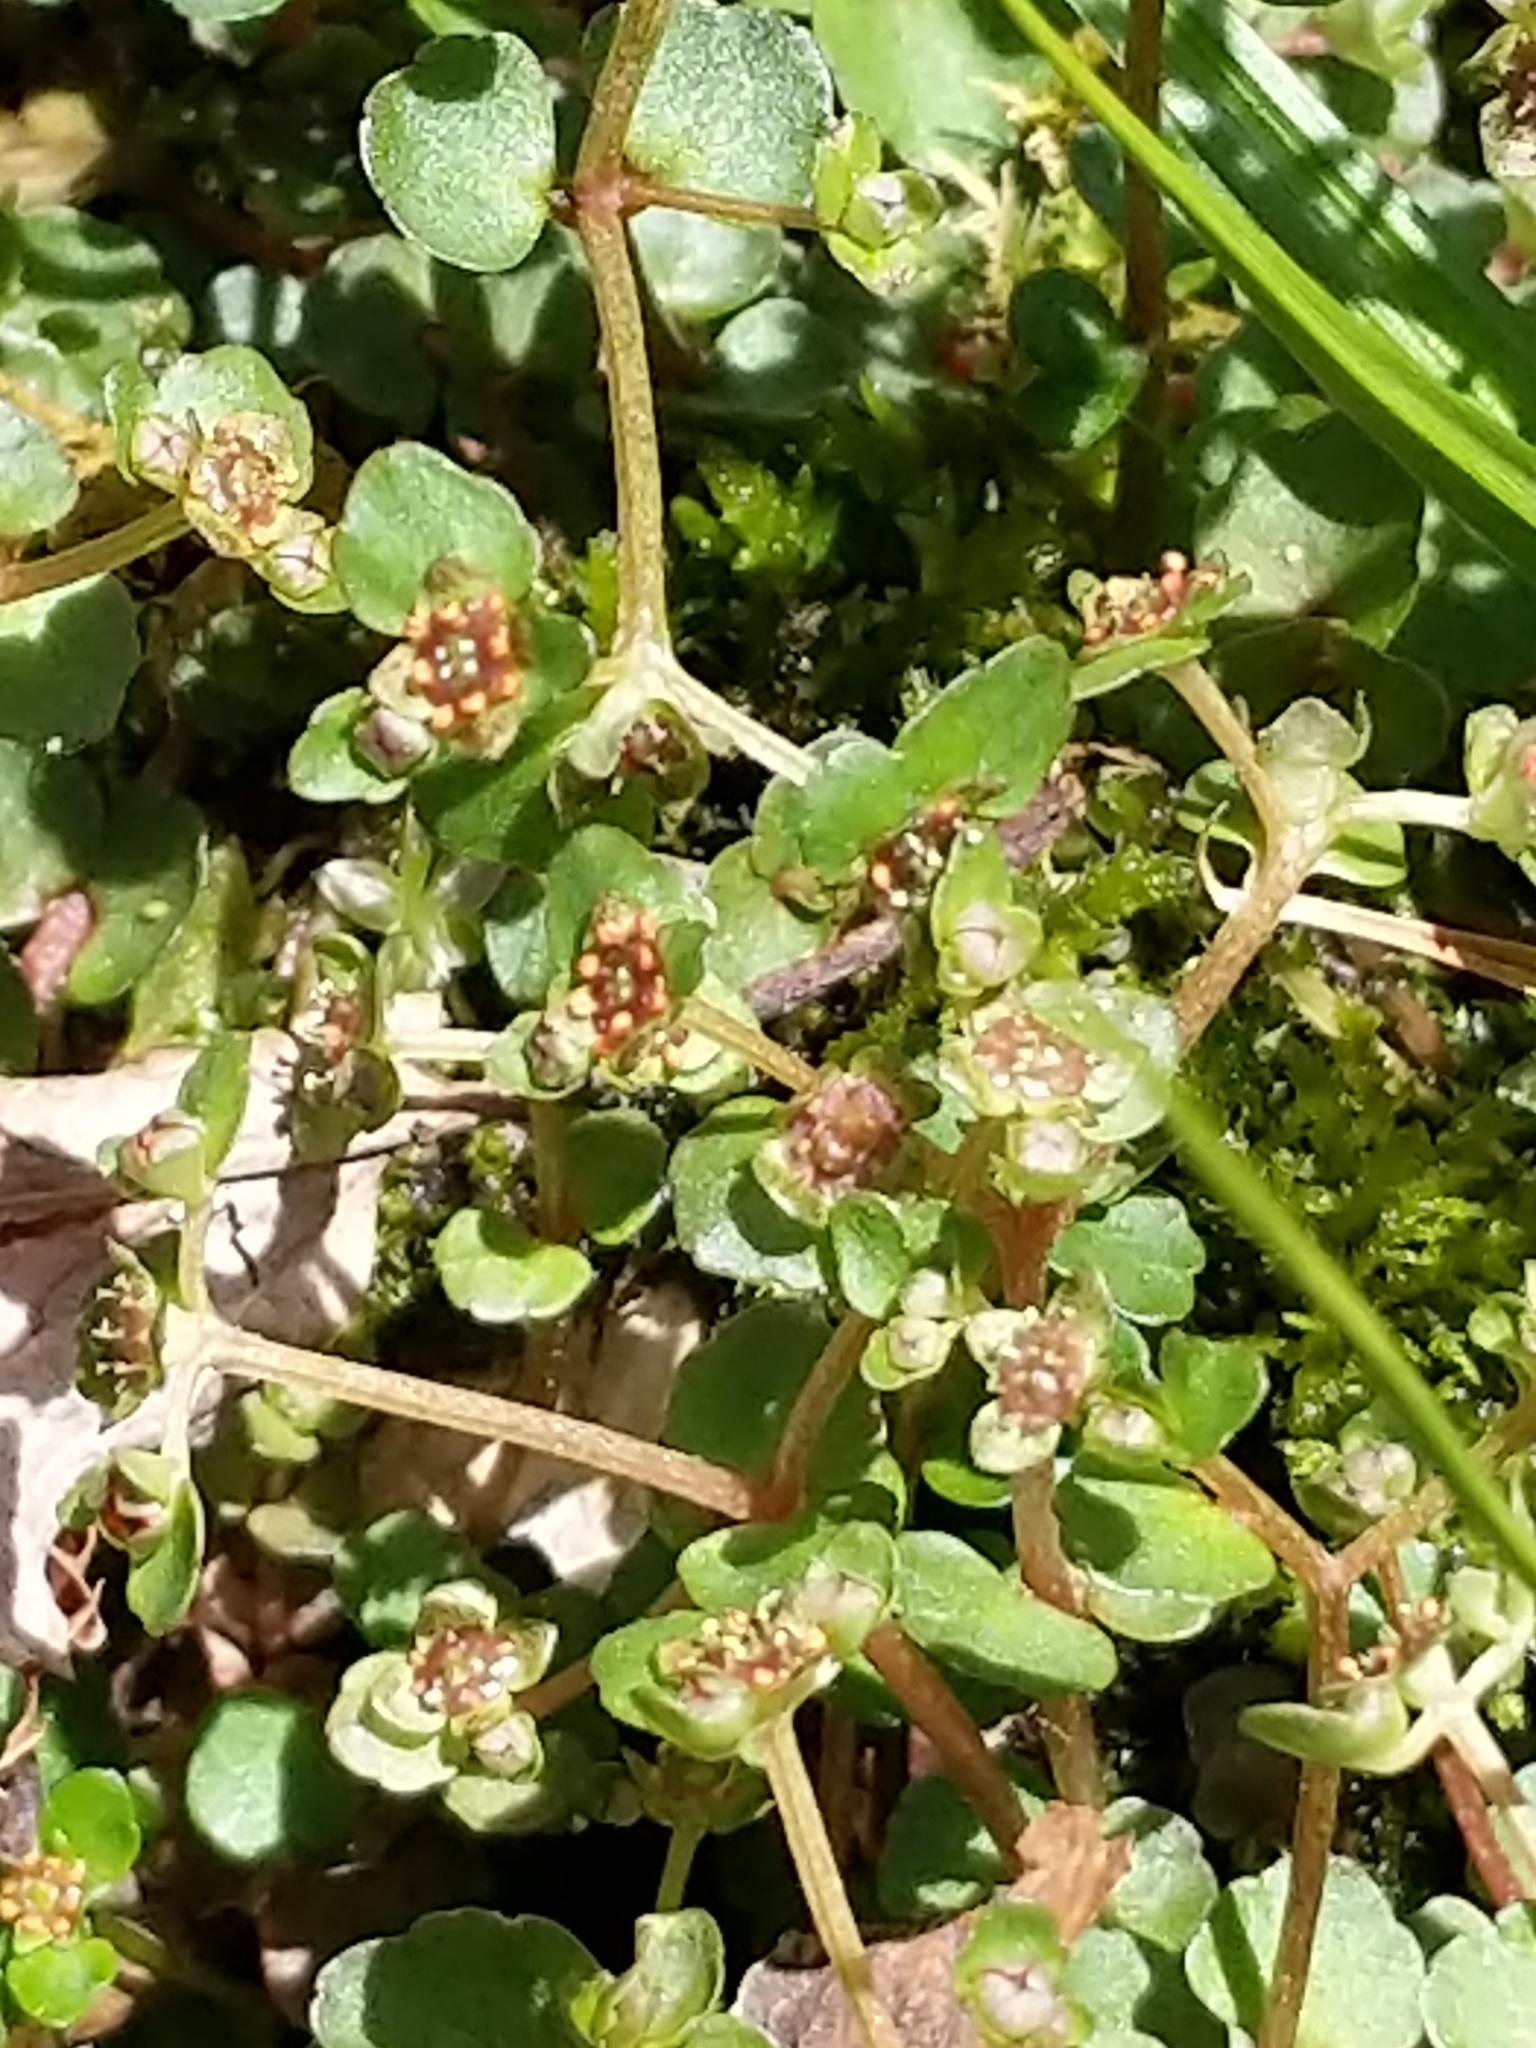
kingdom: Plantae
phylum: Tracheophyta
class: Magnoliopsida
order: Saxifragales
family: Saxifragaceae
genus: Chrysosplenium
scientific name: Chrysosplenium americanum
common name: American golden-saxifrage
